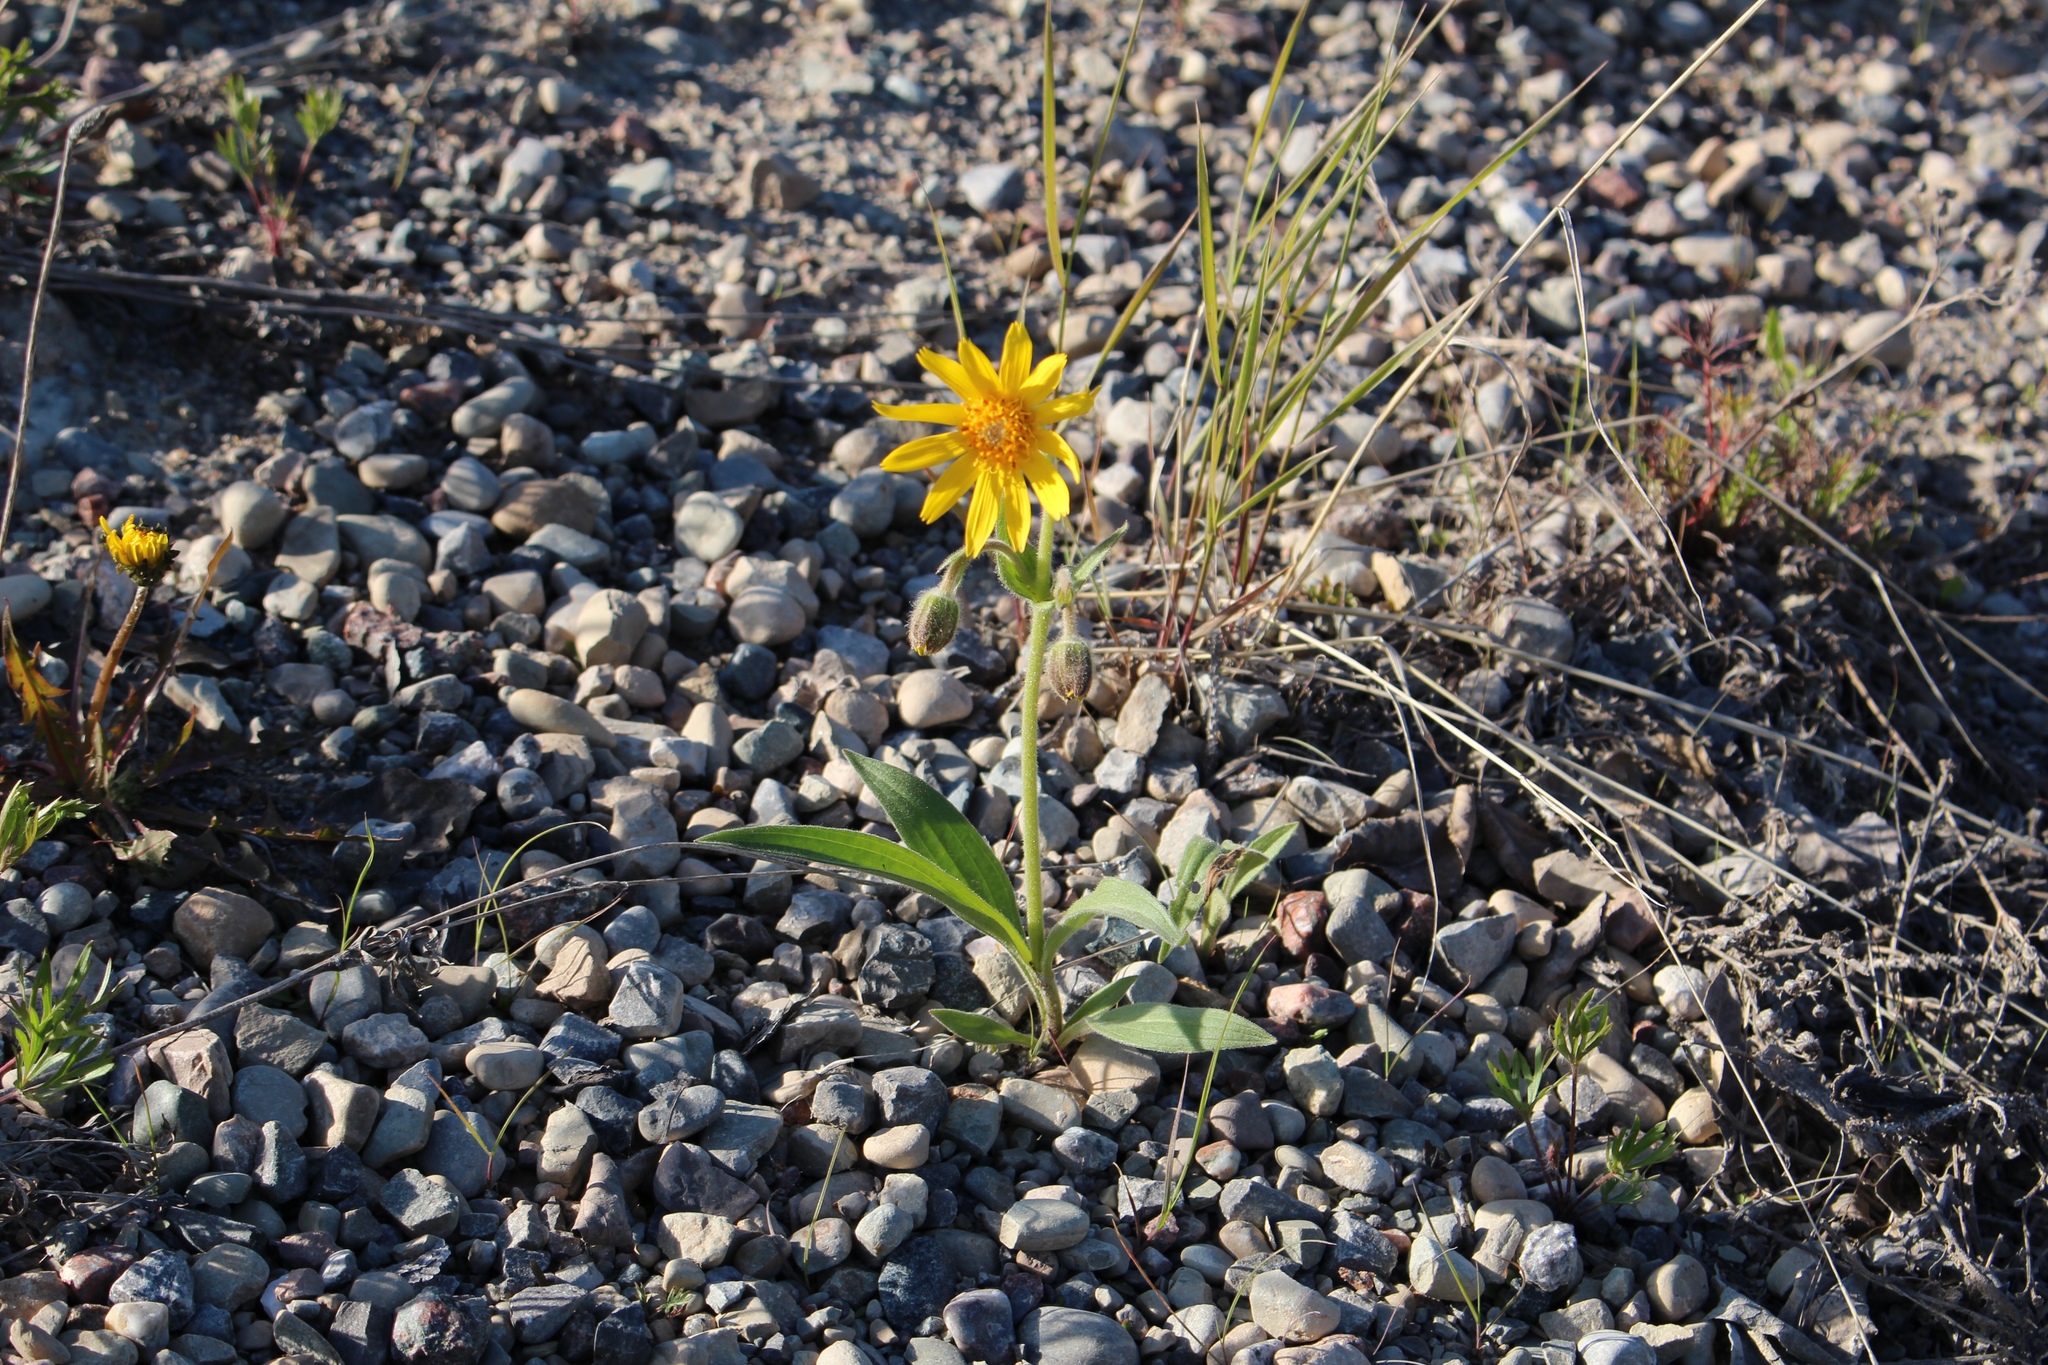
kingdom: Plantae
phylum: Tracheophyta
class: Magnoliopsida
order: Asterales
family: Asteraceae
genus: Arnica
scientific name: Arnica angustifolia
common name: Arctic arnica
